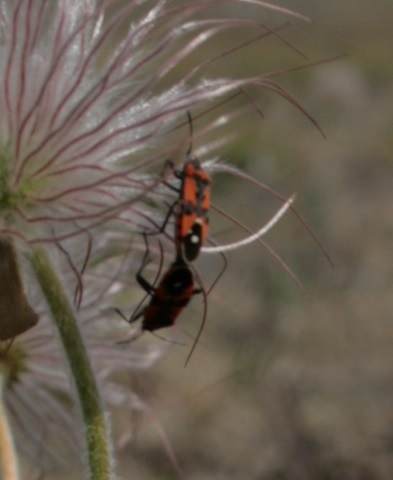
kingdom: Animalia
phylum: Arthropoda
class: Insecta
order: Hemiptera
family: Lygaeidae
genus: Lygaeus
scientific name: Lygaeus equestris
